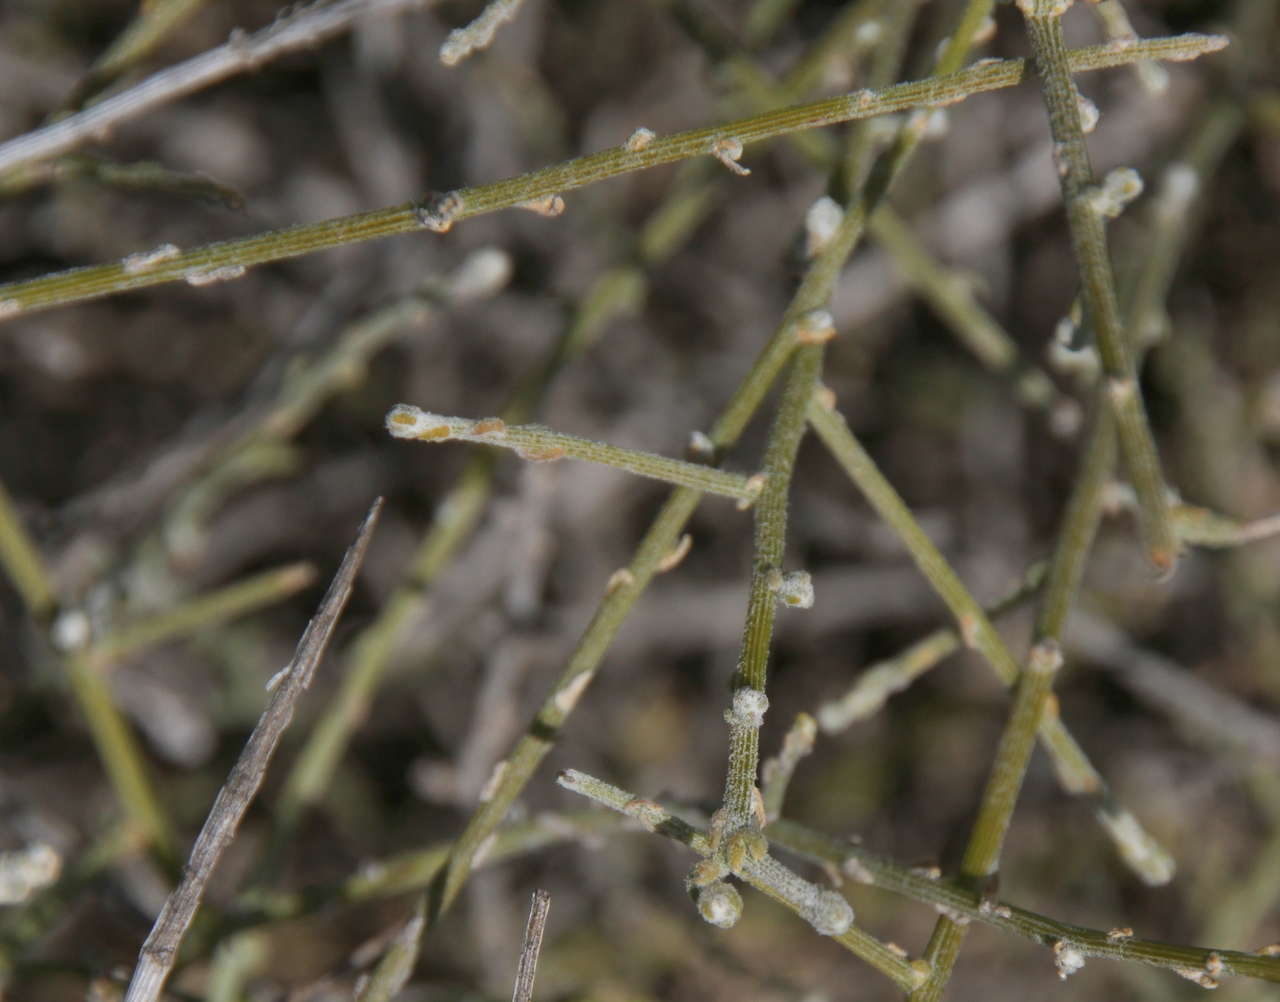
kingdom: Plantae
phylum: Tracheophyta
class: Magnoliopsida
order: Caryophyllales
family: Amaranthaceae
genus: Maireana
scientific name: Maireana aphylla
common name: Cottonbush
